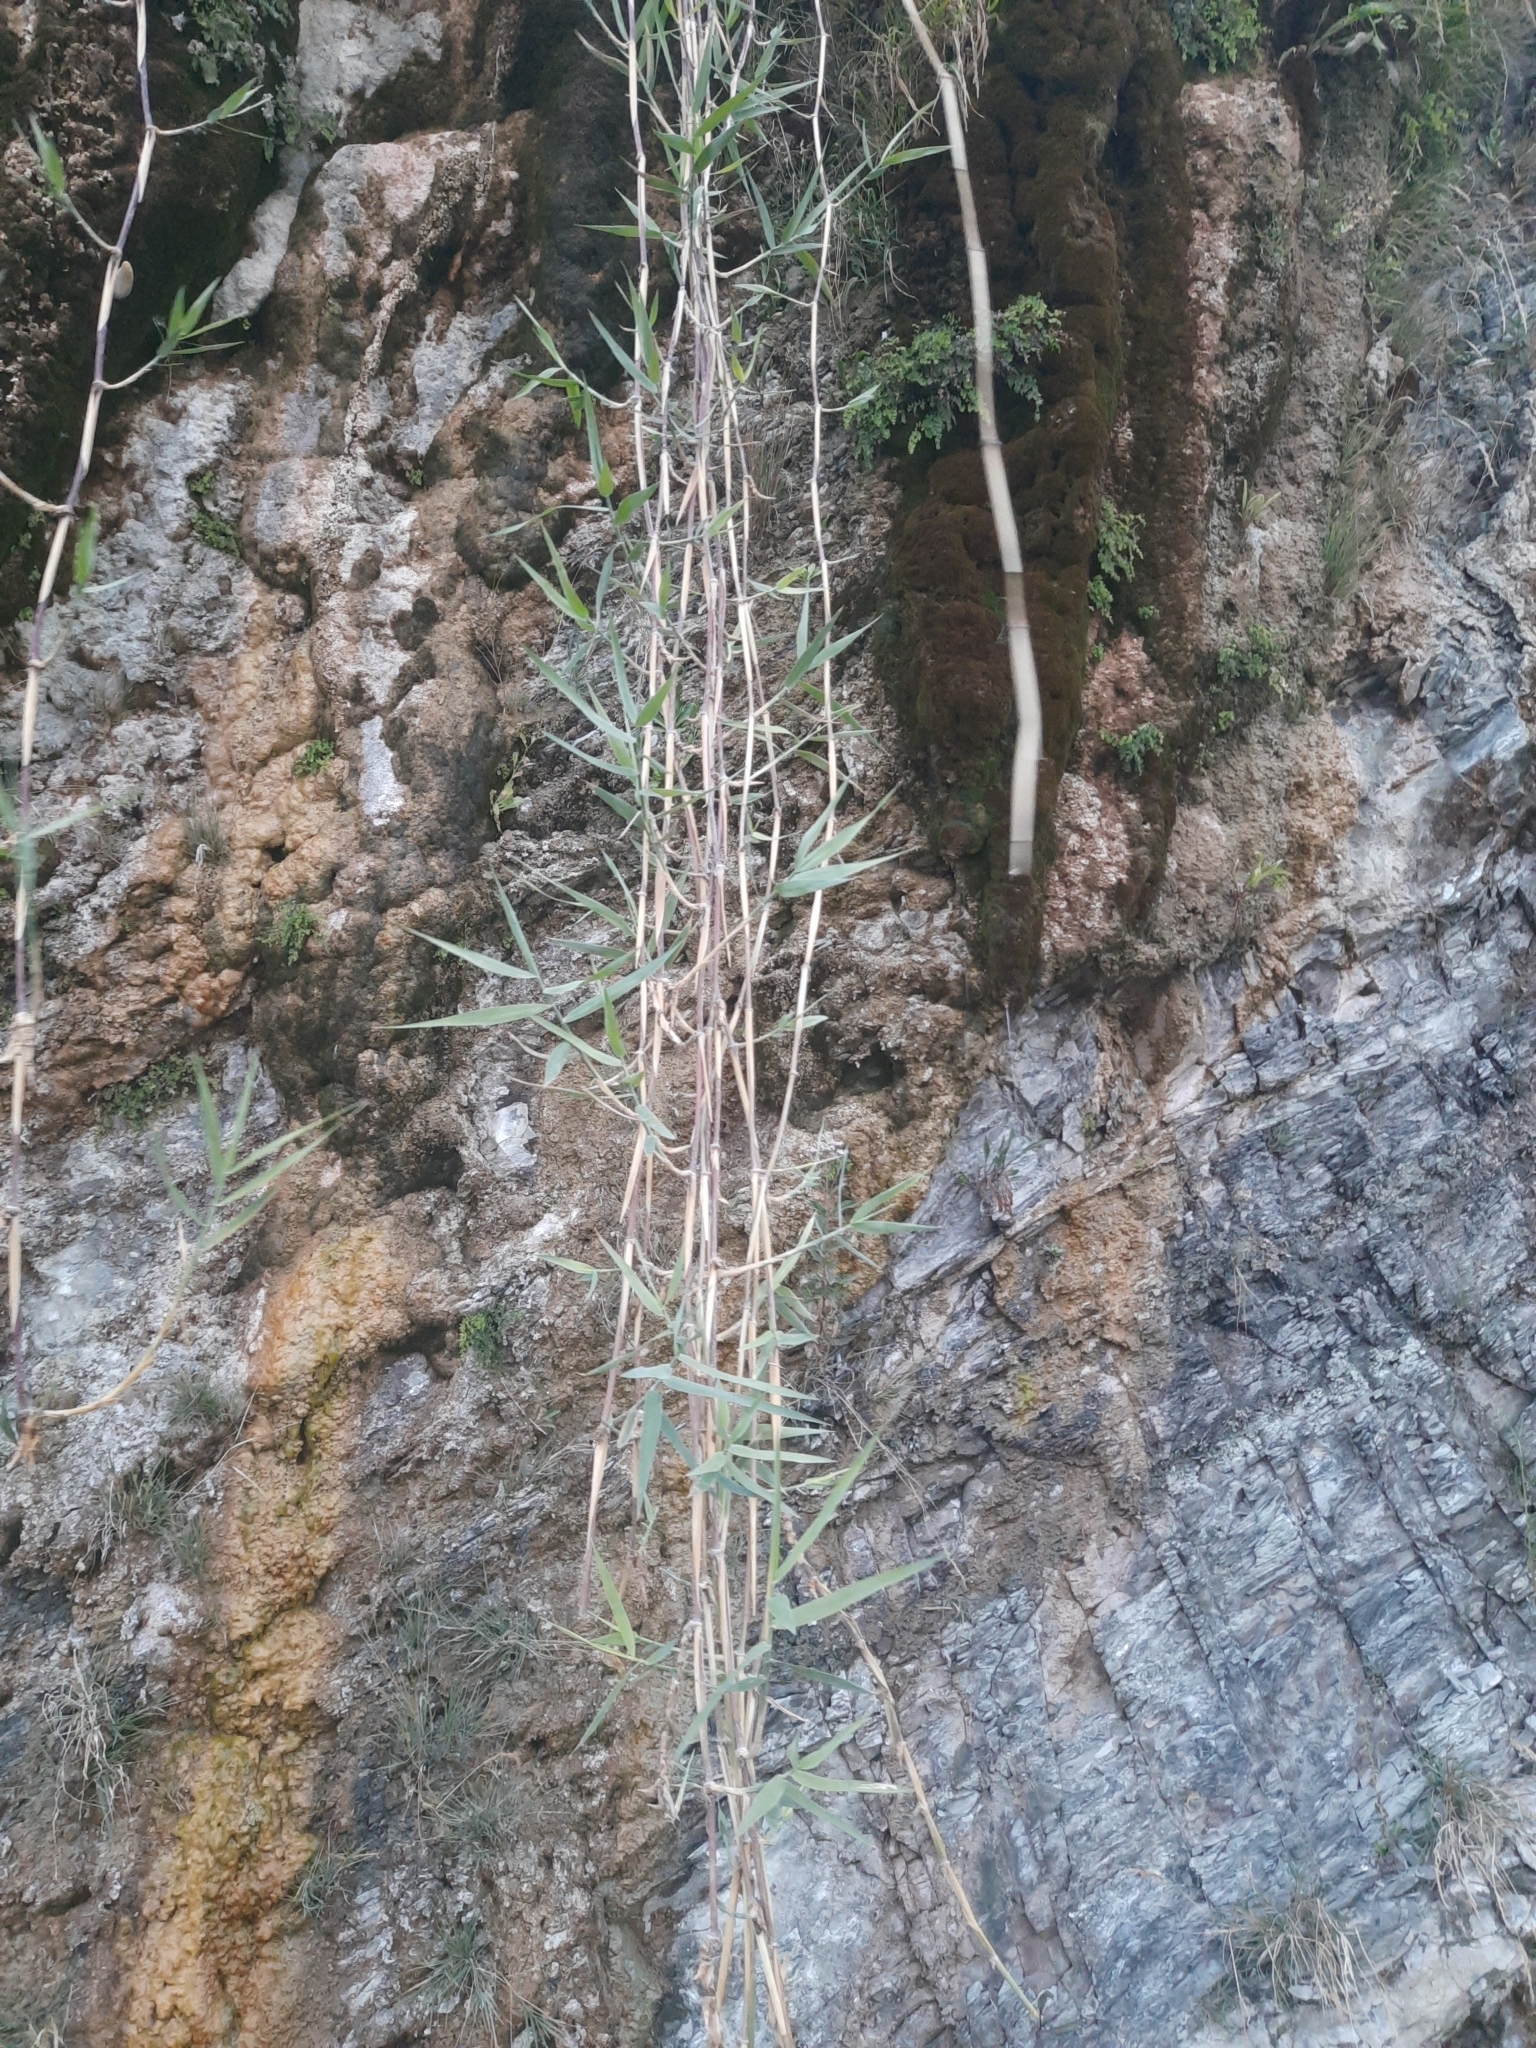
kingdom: Plantae
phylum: Tracheophyta
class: Liliopsida
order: Poales
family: Poaceae
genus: Phragmites
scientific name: Phragmites australis
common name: Common reed
